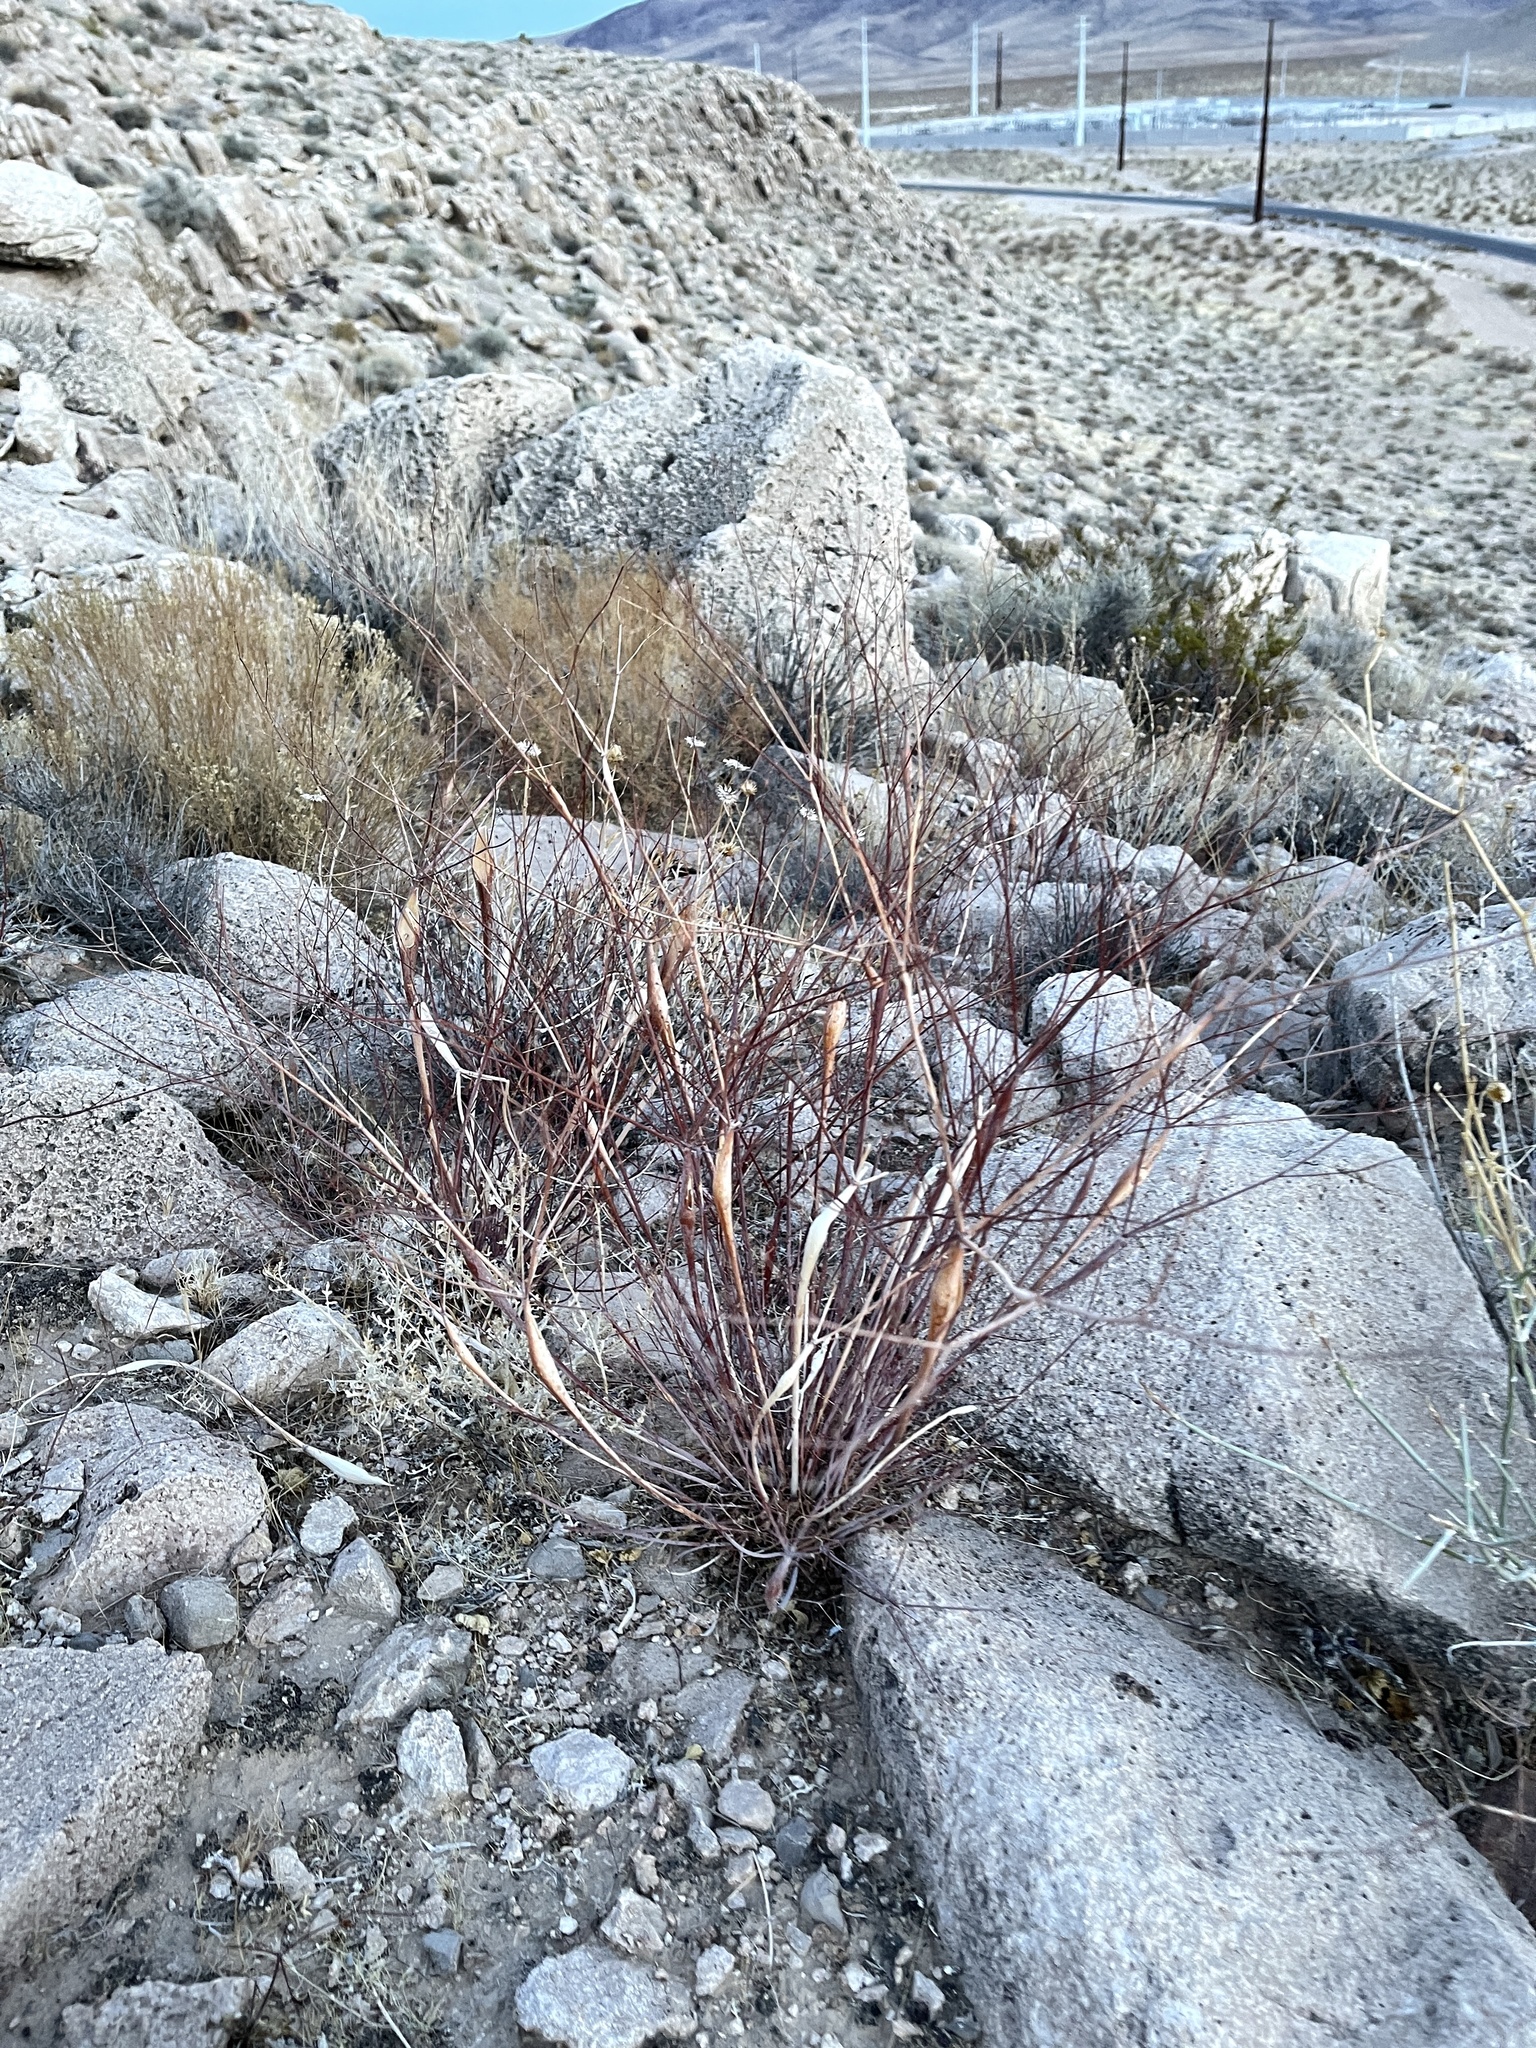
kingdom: Plantae
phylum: Tracheophyta
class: Magnoliopsida
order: Caryophyllales
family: Polygonaceae
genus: Eriogonum
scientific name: Eriogonum inflatum
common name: Desert trumpet
